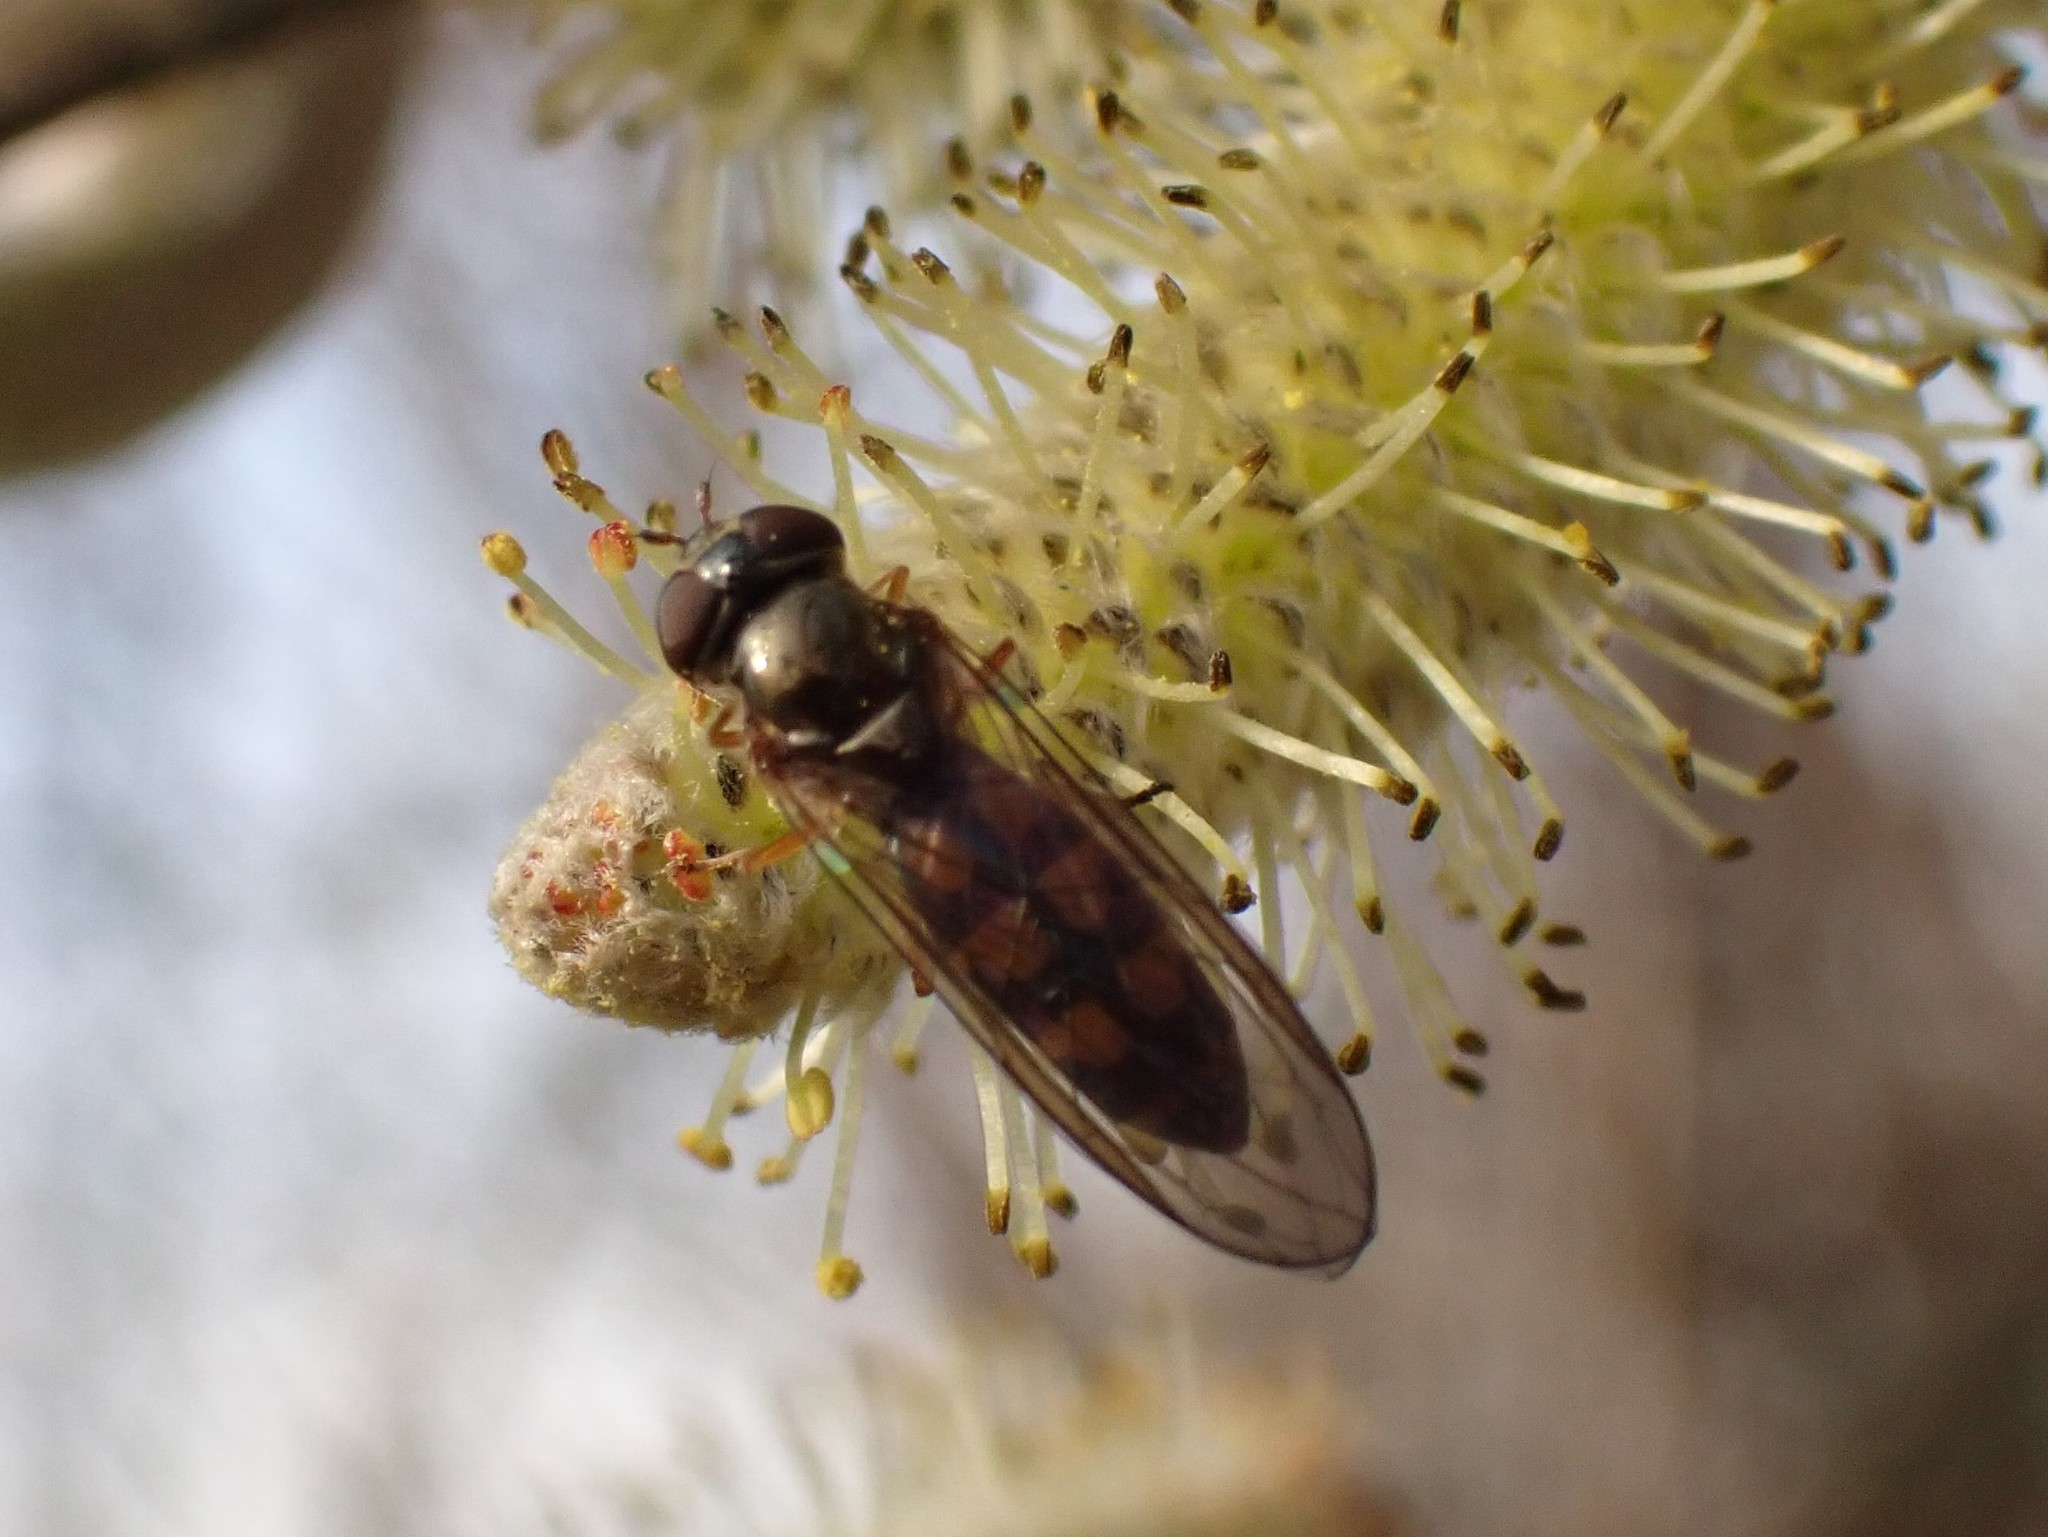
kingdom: Animalia
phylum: Arthropoda
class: Insecta
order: Diptera
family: Syrphidae
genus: Melanostoma
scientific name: Melanostoma mellina
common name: Hover fly
